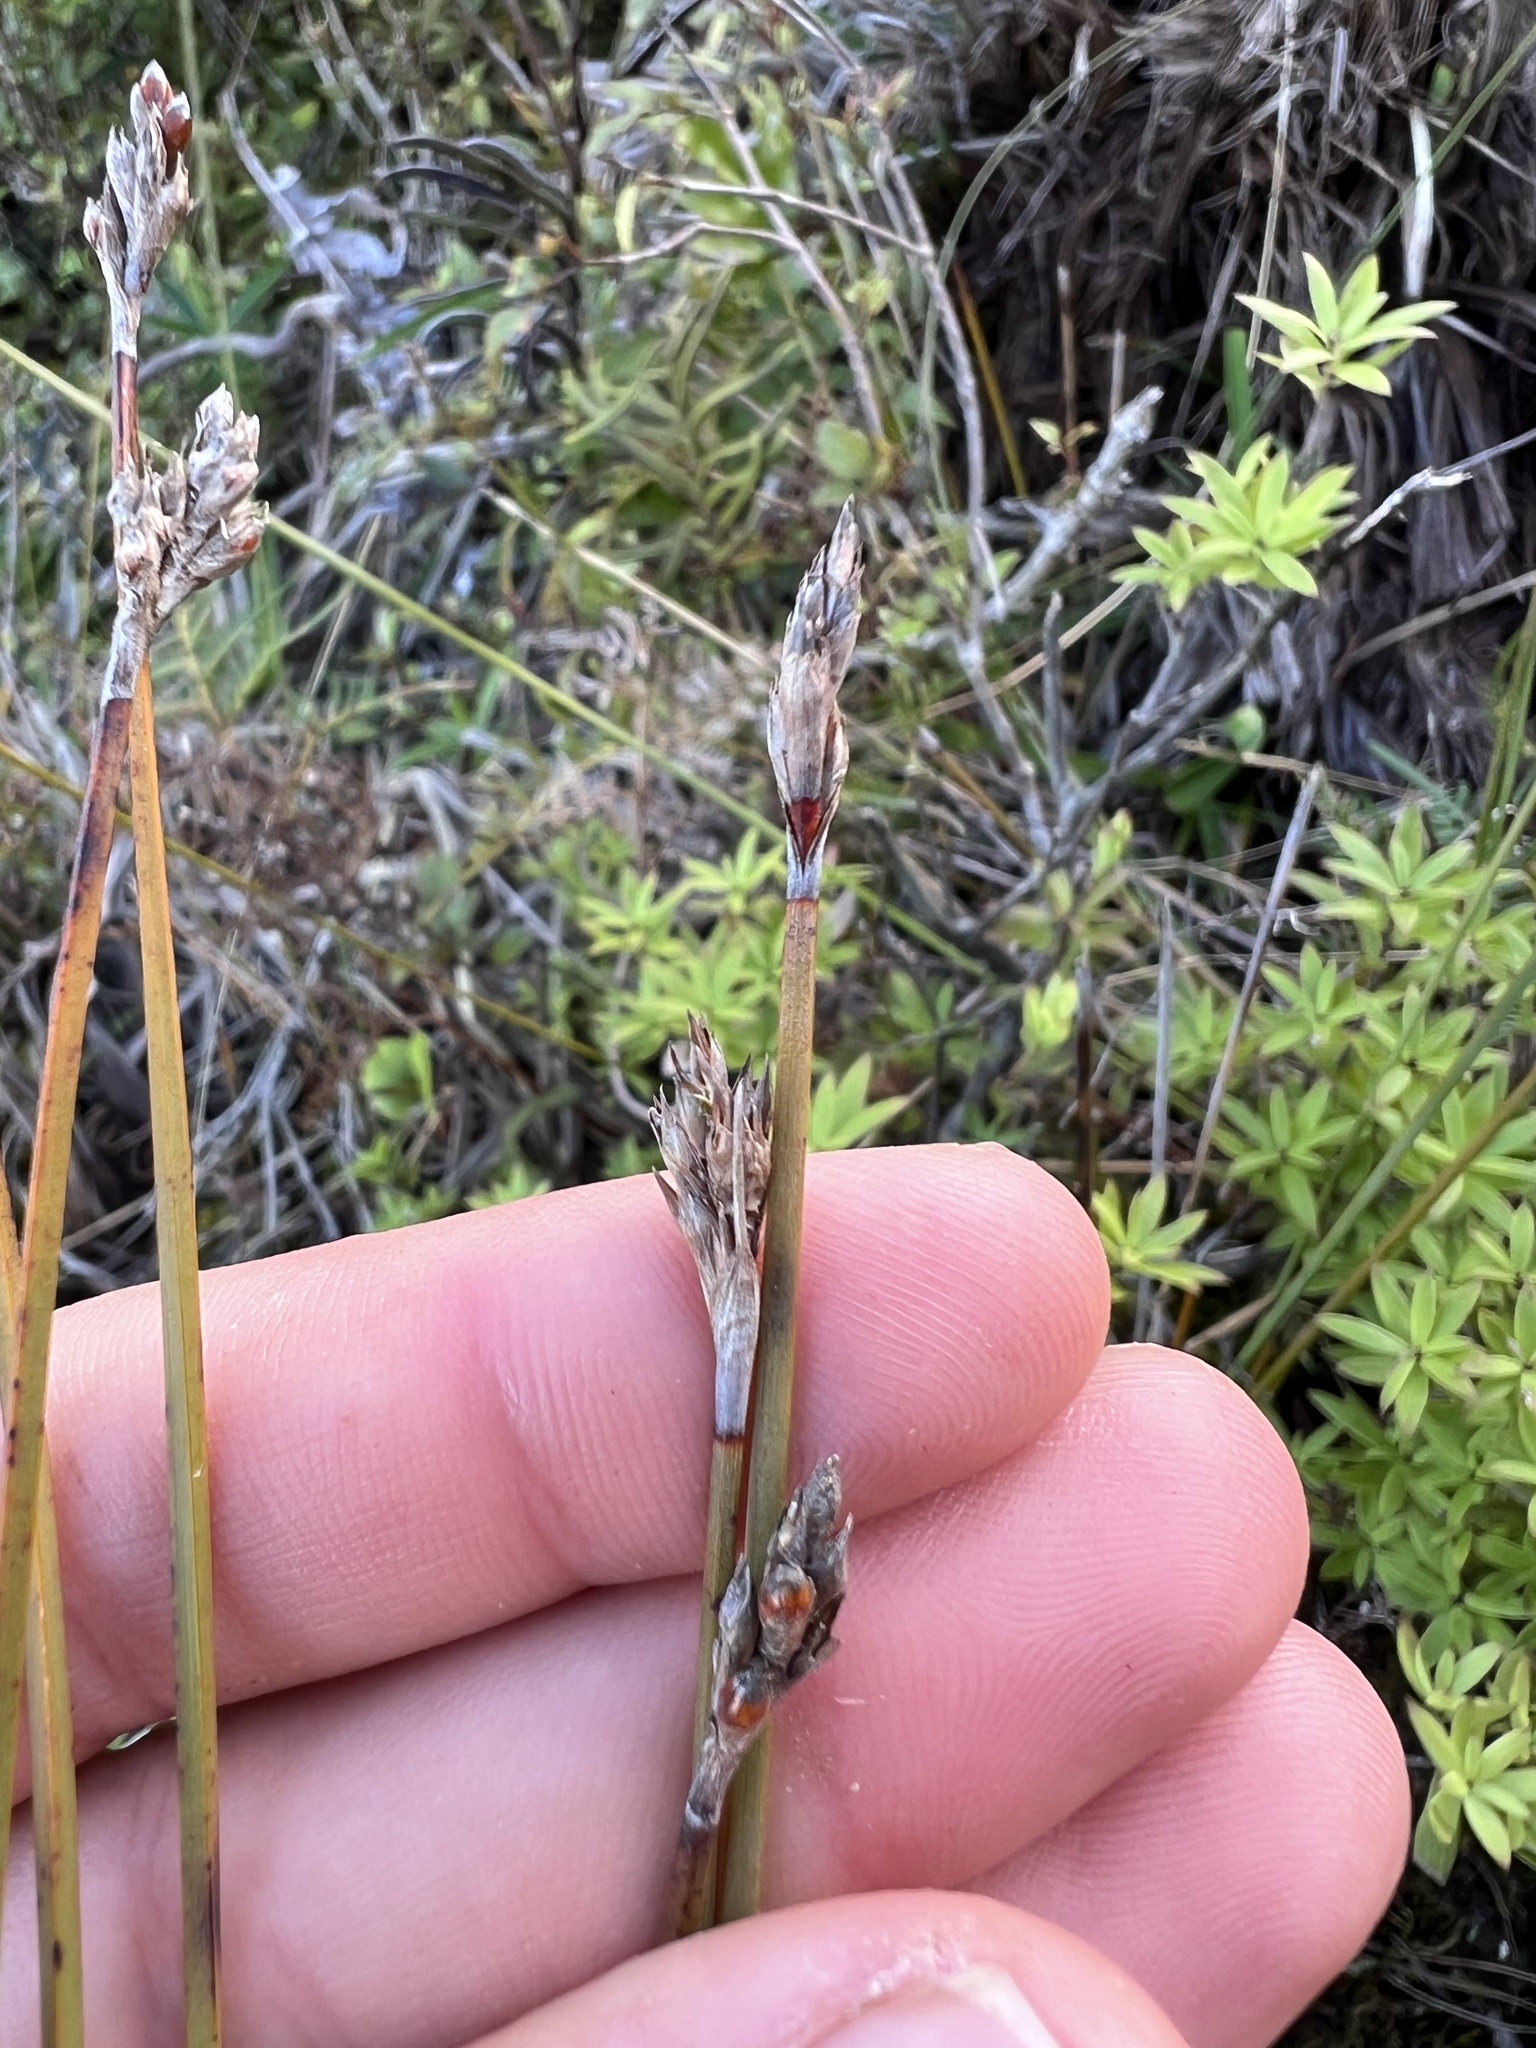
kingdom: Plantae
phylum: Tracheophyta
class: Liliopsida
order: Poales
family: Cyperaceae
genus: Lepidosperma
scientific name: Lepidosperma australe
